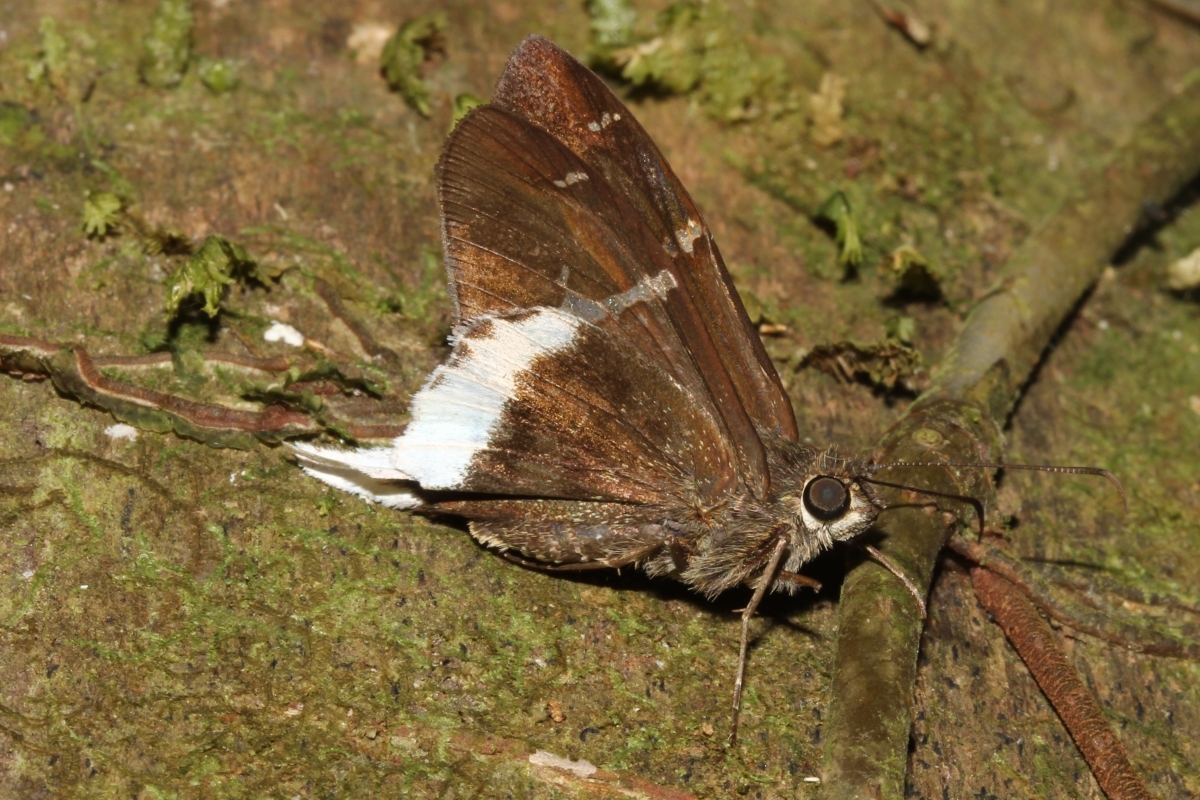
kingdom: Animalia
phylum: Arthropoda
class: Insecta
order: Lepidoptera
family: Hesperiidae
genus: Achalarus
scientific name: Achalarus
